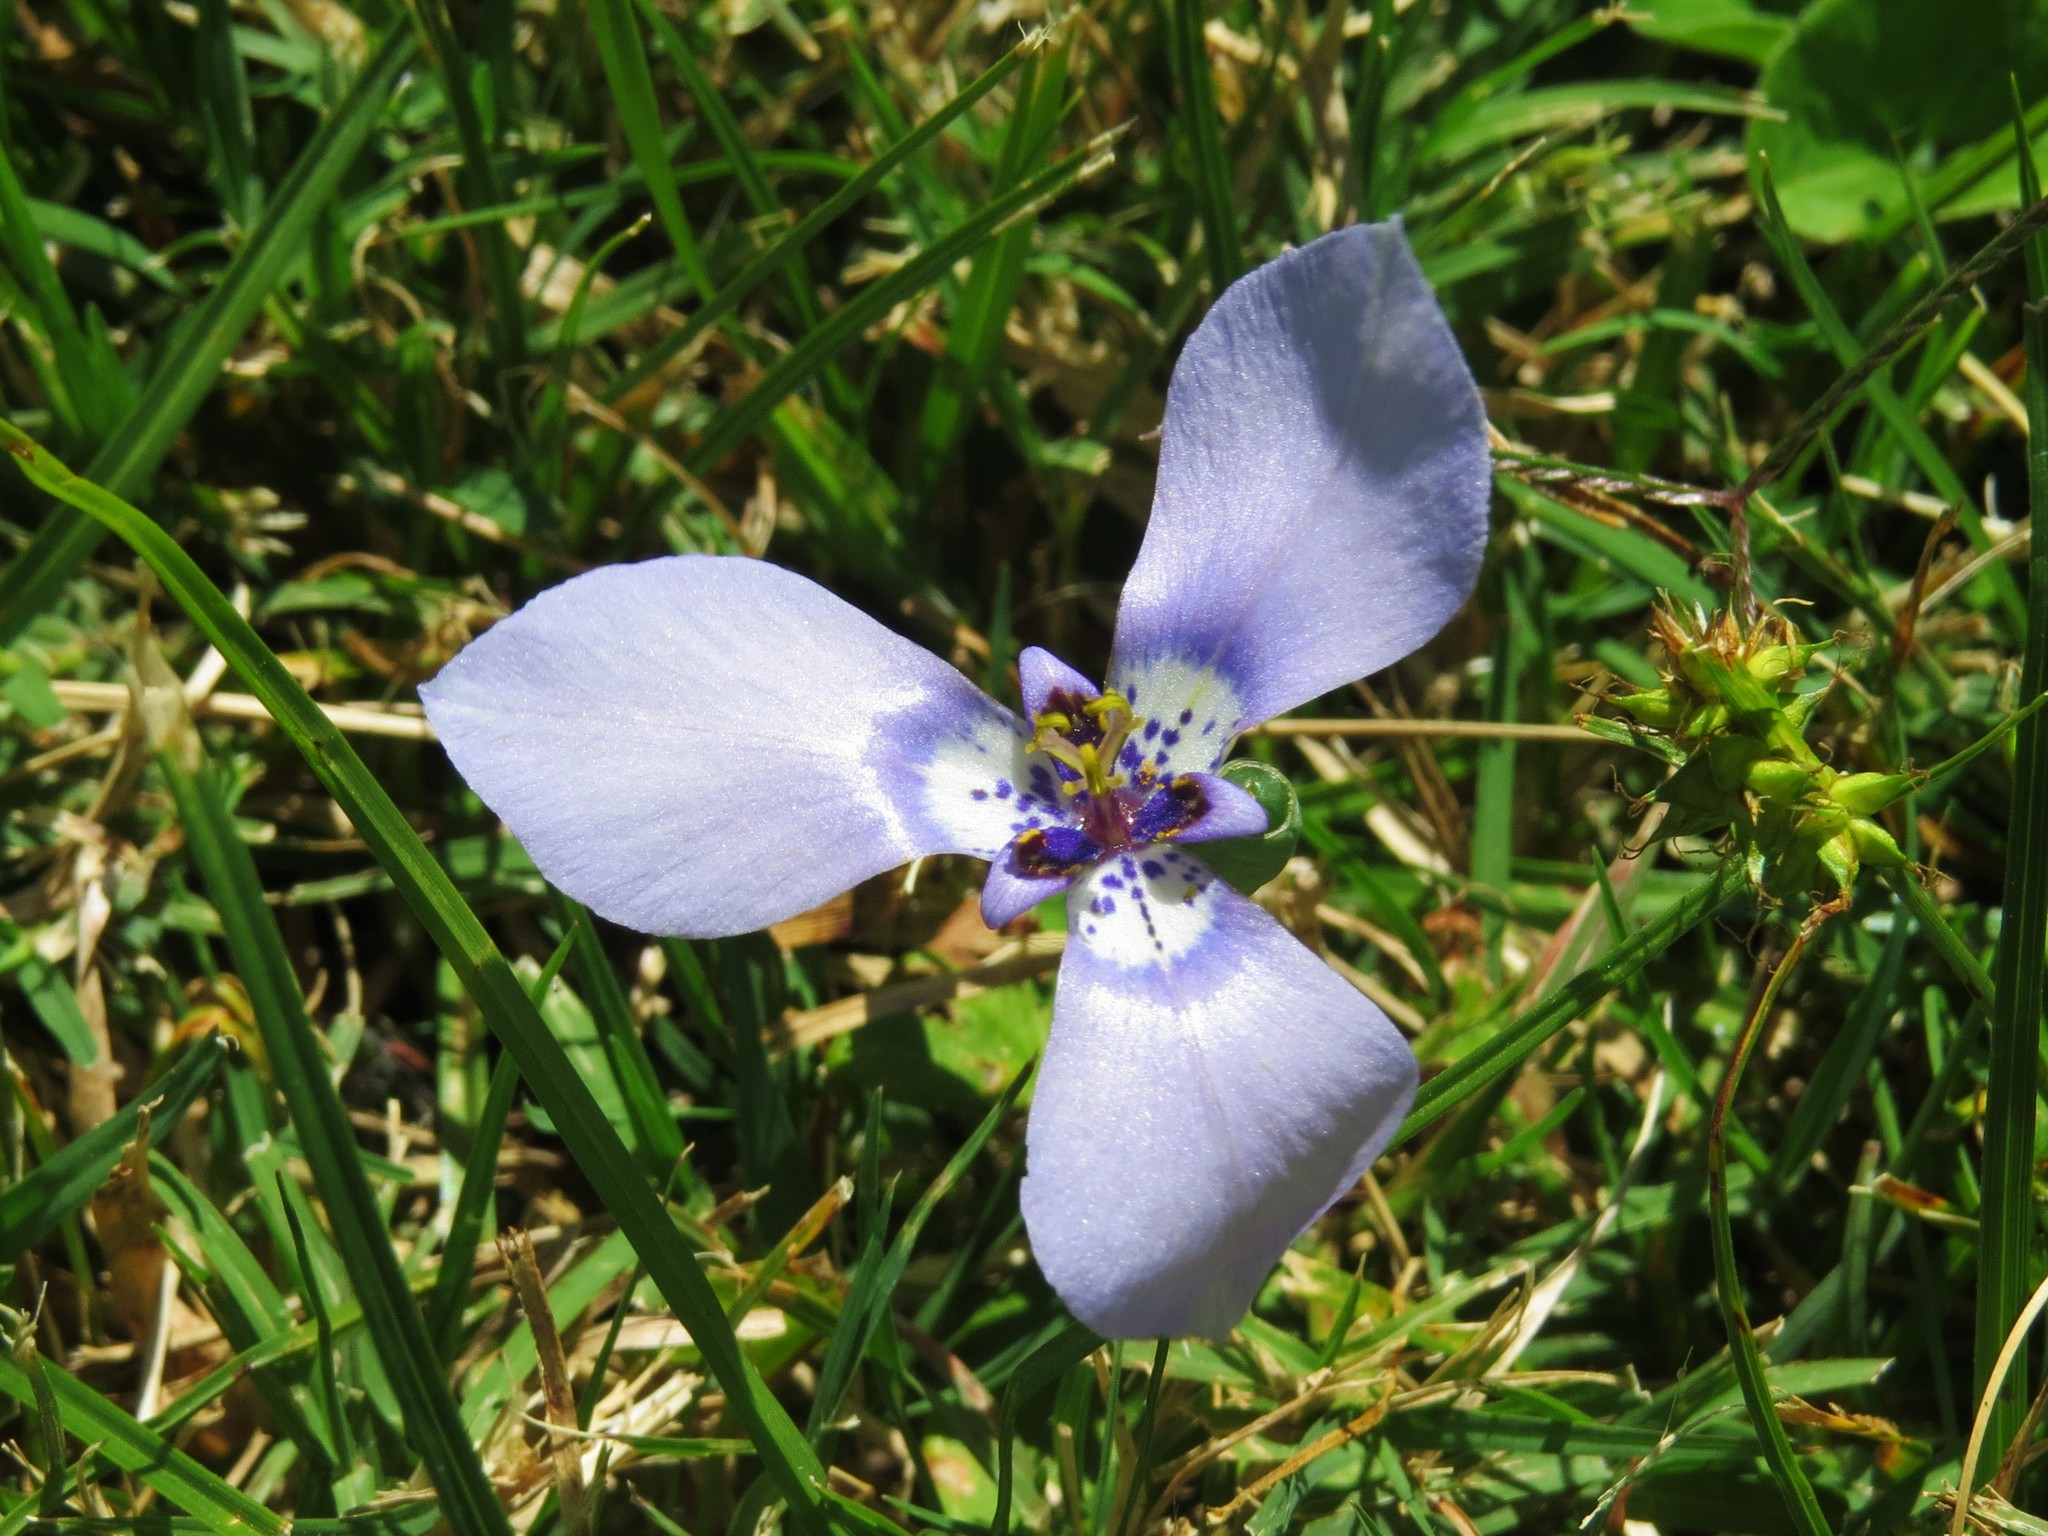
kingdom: Plantae
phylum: Tracheophyta
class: Liliopsida
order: Asparagales
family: Iridaceae
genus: Herbertia
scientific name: Herbertia lahue
